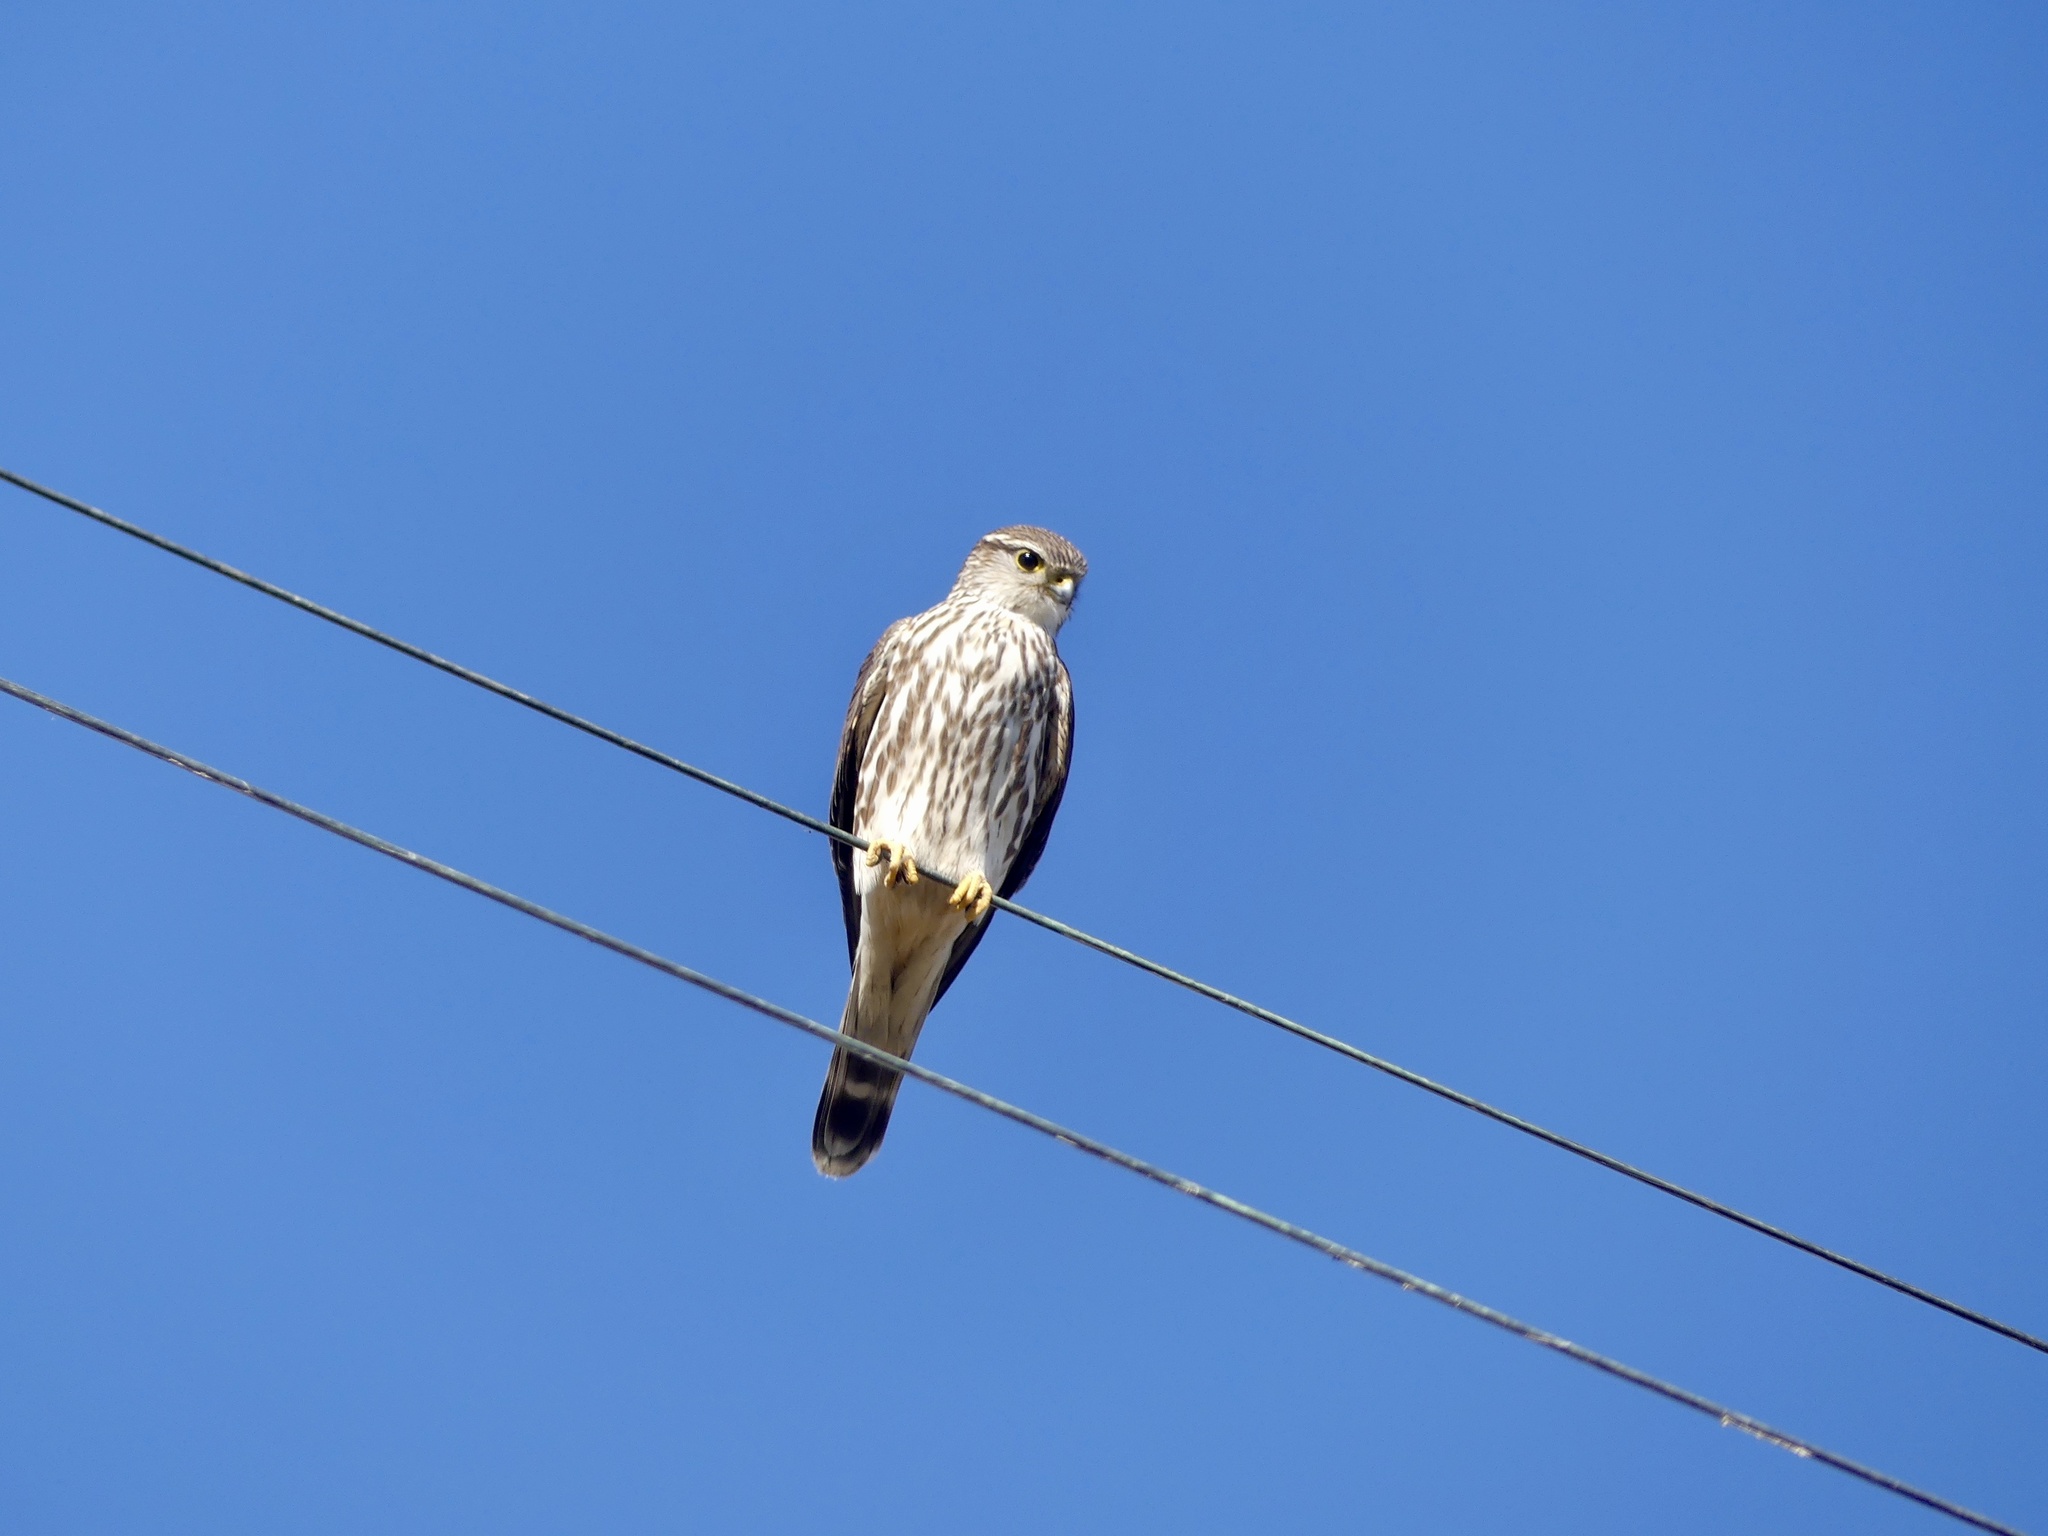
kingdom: Animalia
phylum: Chordata
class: Aves
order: Falconiformes
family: Falconidae
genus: Falco
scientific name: Falco columbarius
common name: Merlin
